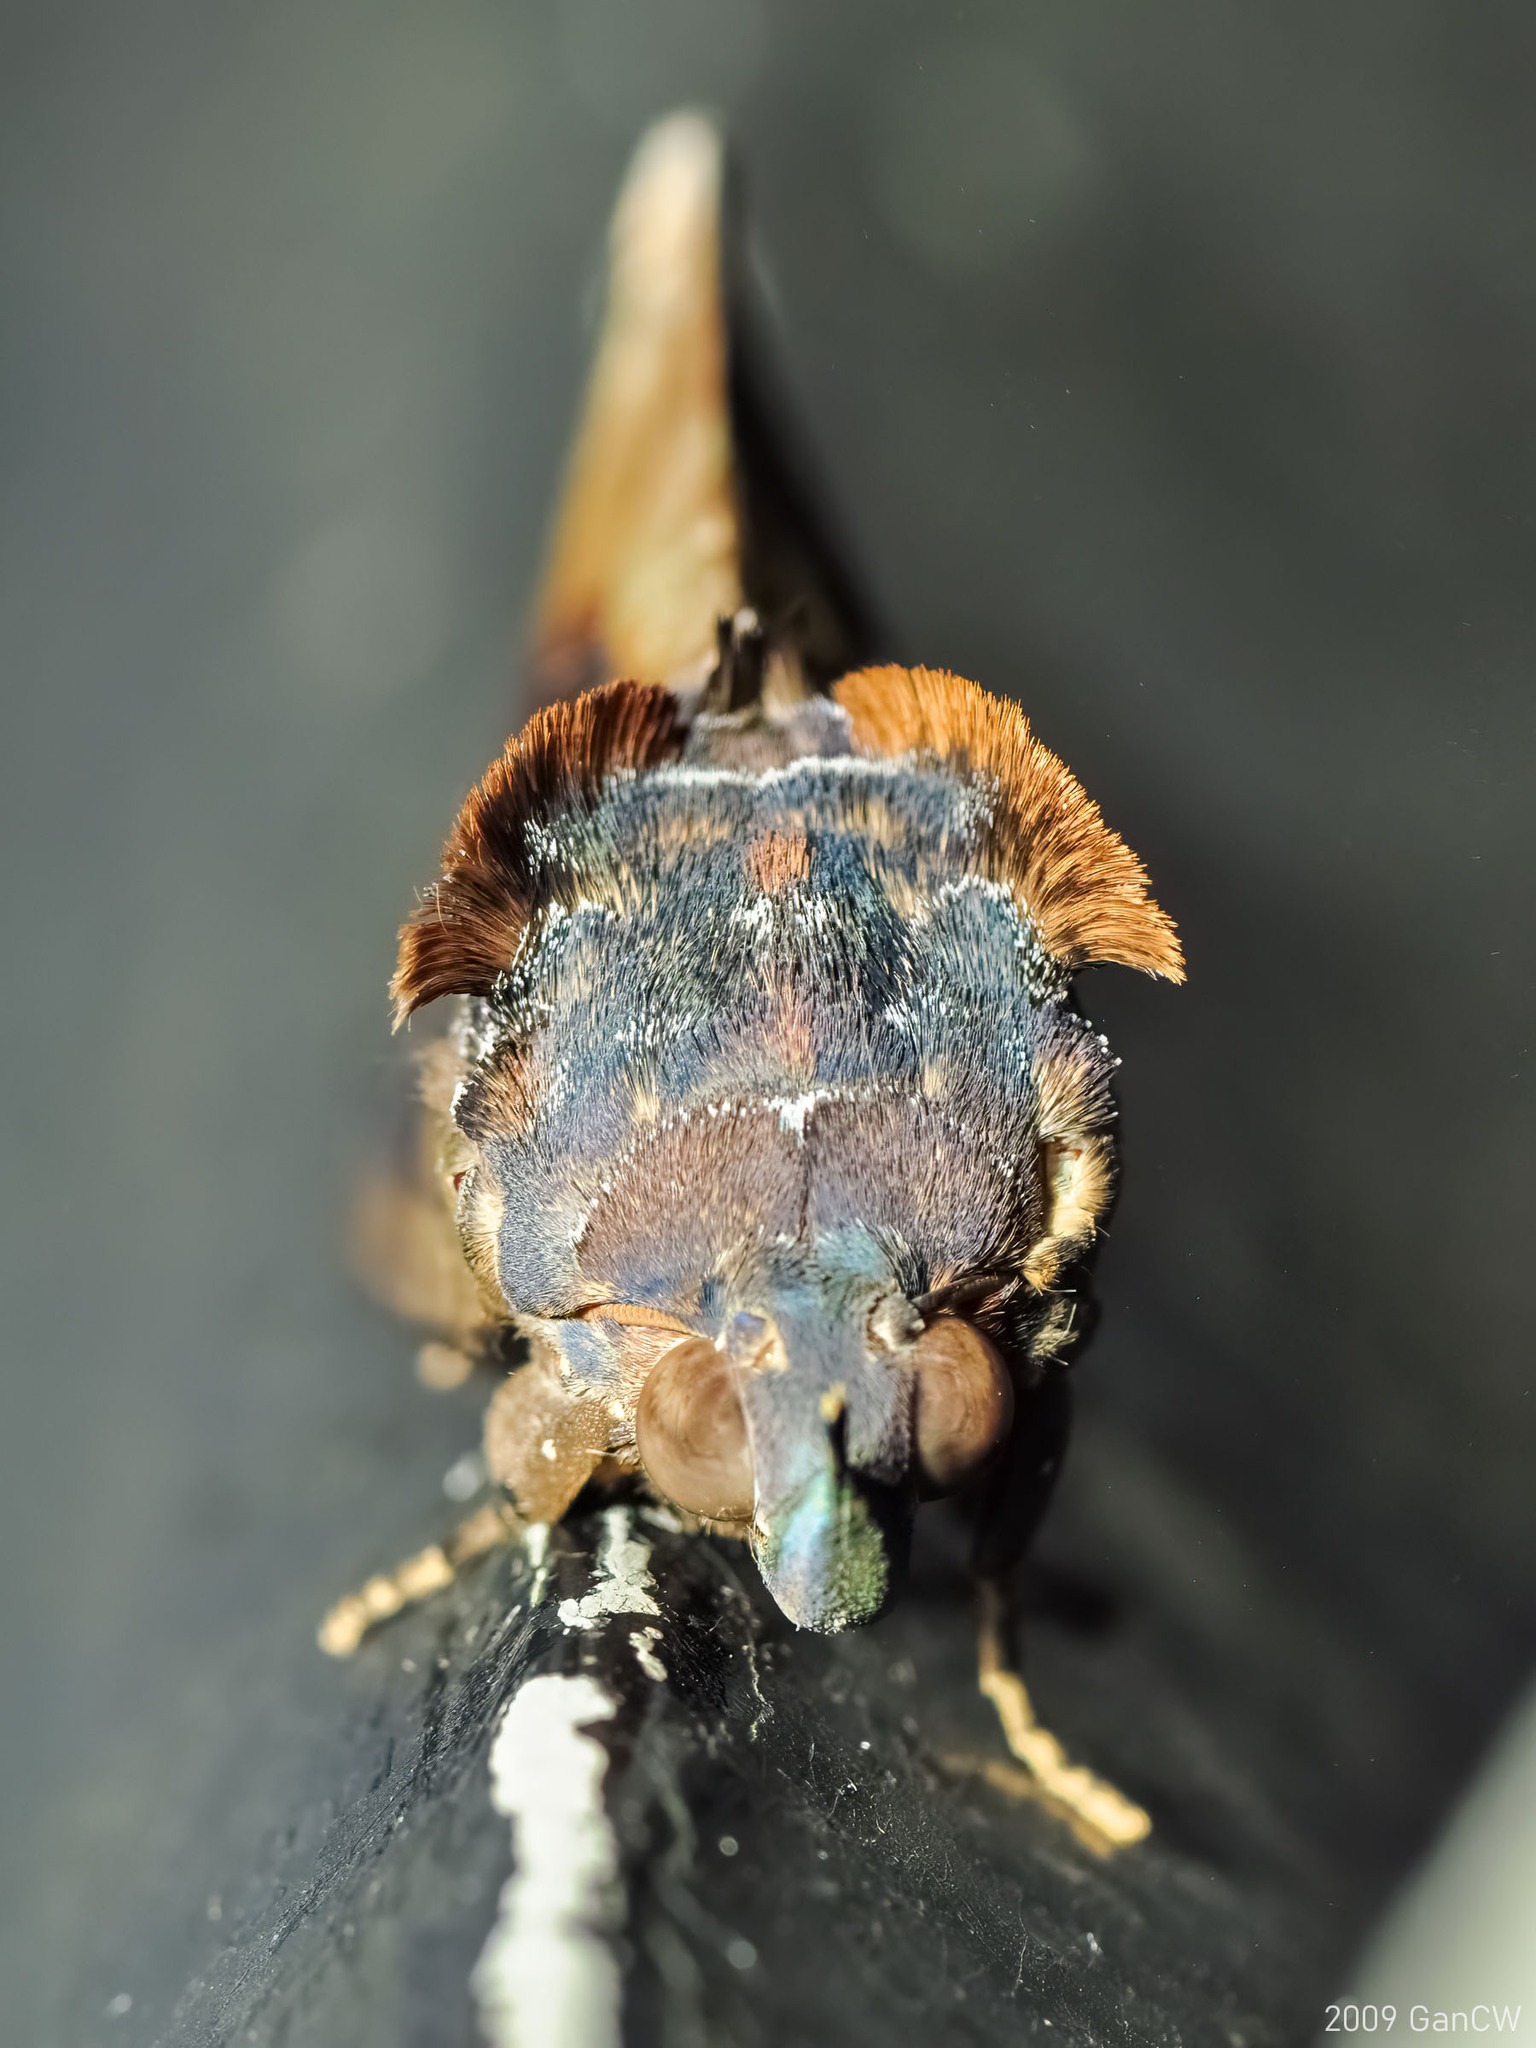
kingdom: Animalia
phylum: Arthropoda
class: Insecta
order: Lepidoptera
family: Erebidae
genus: Eudocima
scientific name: Eudocima phalonia
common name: Wasp
